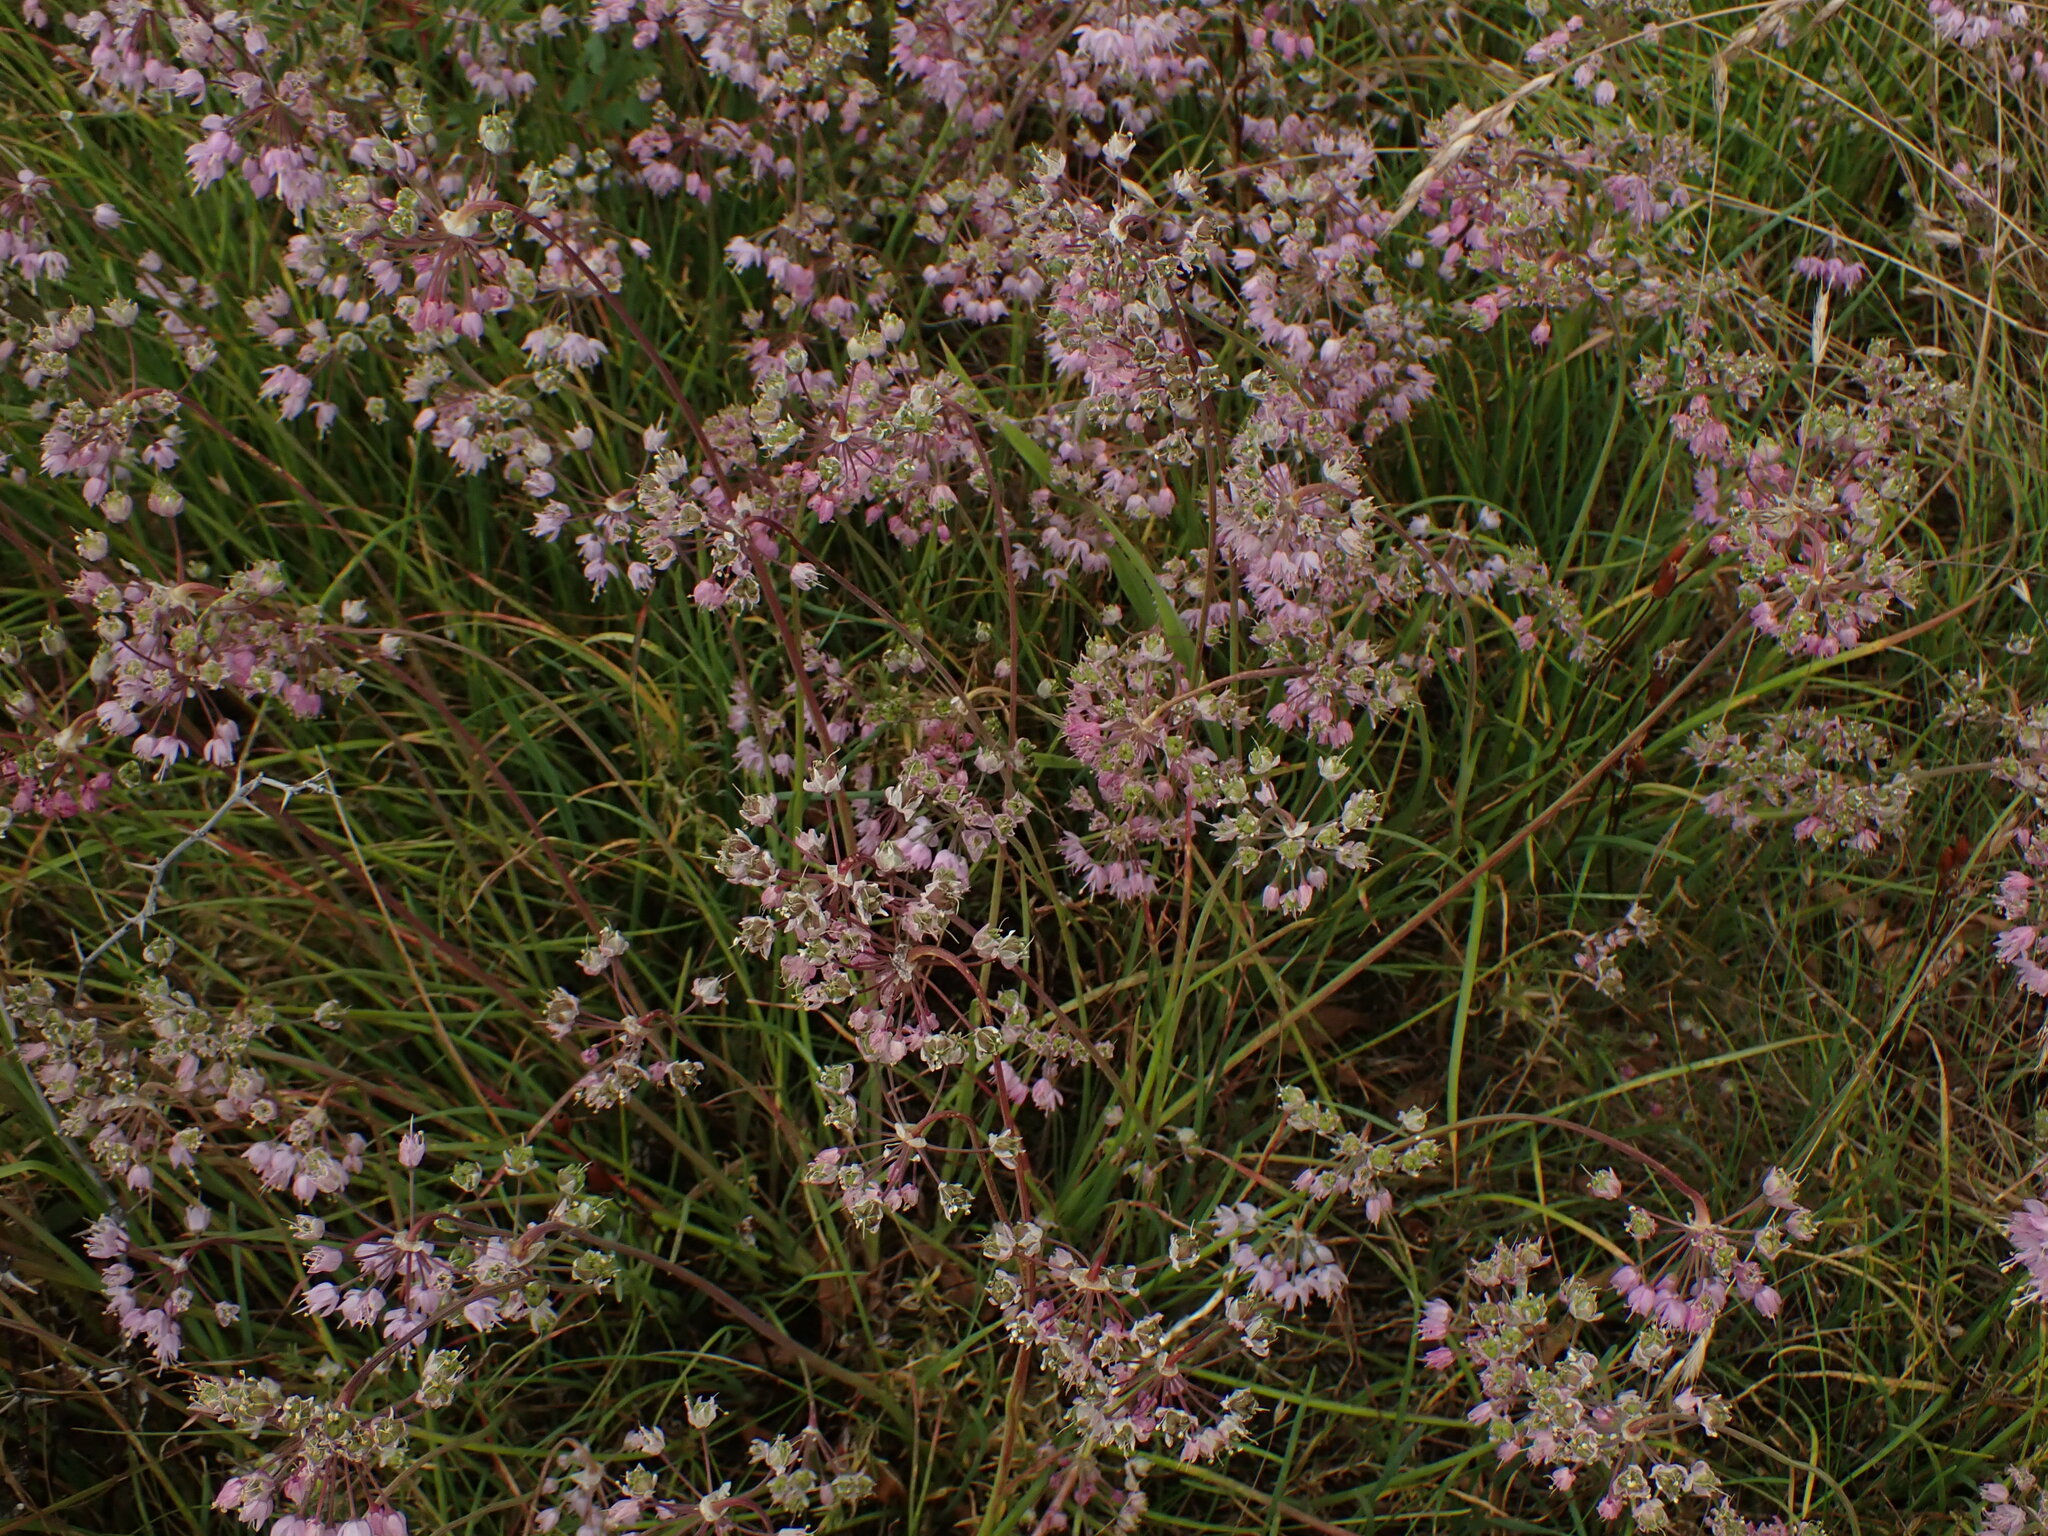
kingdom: Plantae
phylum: Tracheophyta
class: Liliopsida
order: Asparagales
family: Amaryllidaceae
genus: Allium
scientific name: Allium cernuum
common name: Nodding onion
